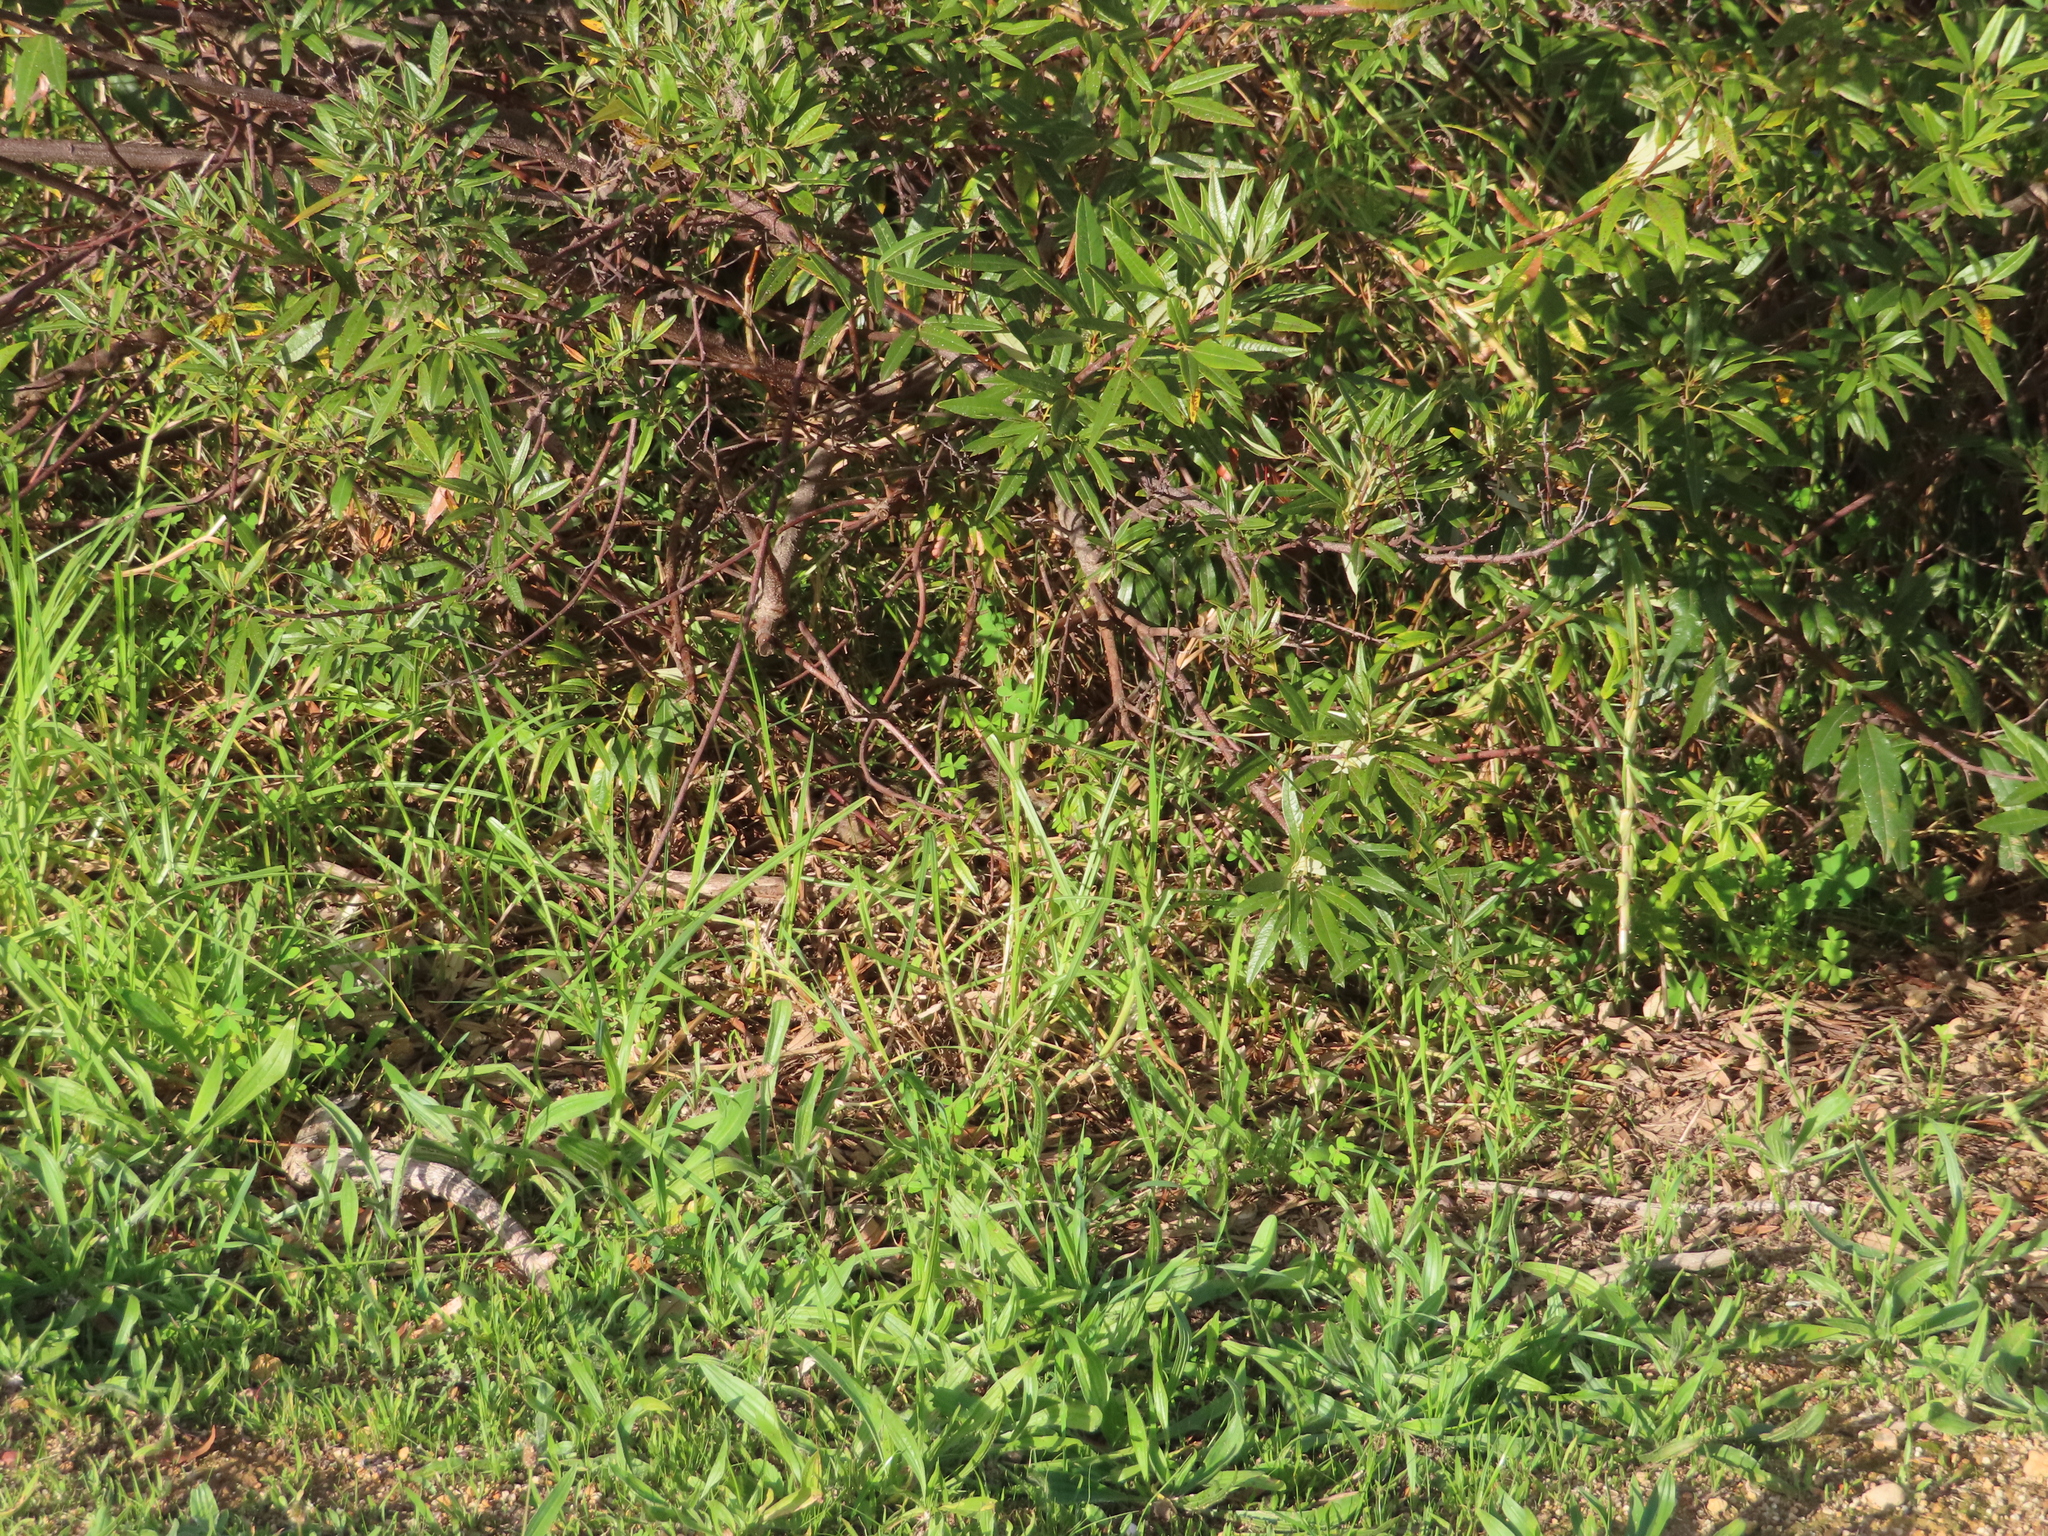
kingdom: Plantae
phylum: Tracheophyta
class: Magnoliopsida
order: Sapindales
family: Anacardiaceae
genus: Searsia
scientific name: Searsia angustifolia
